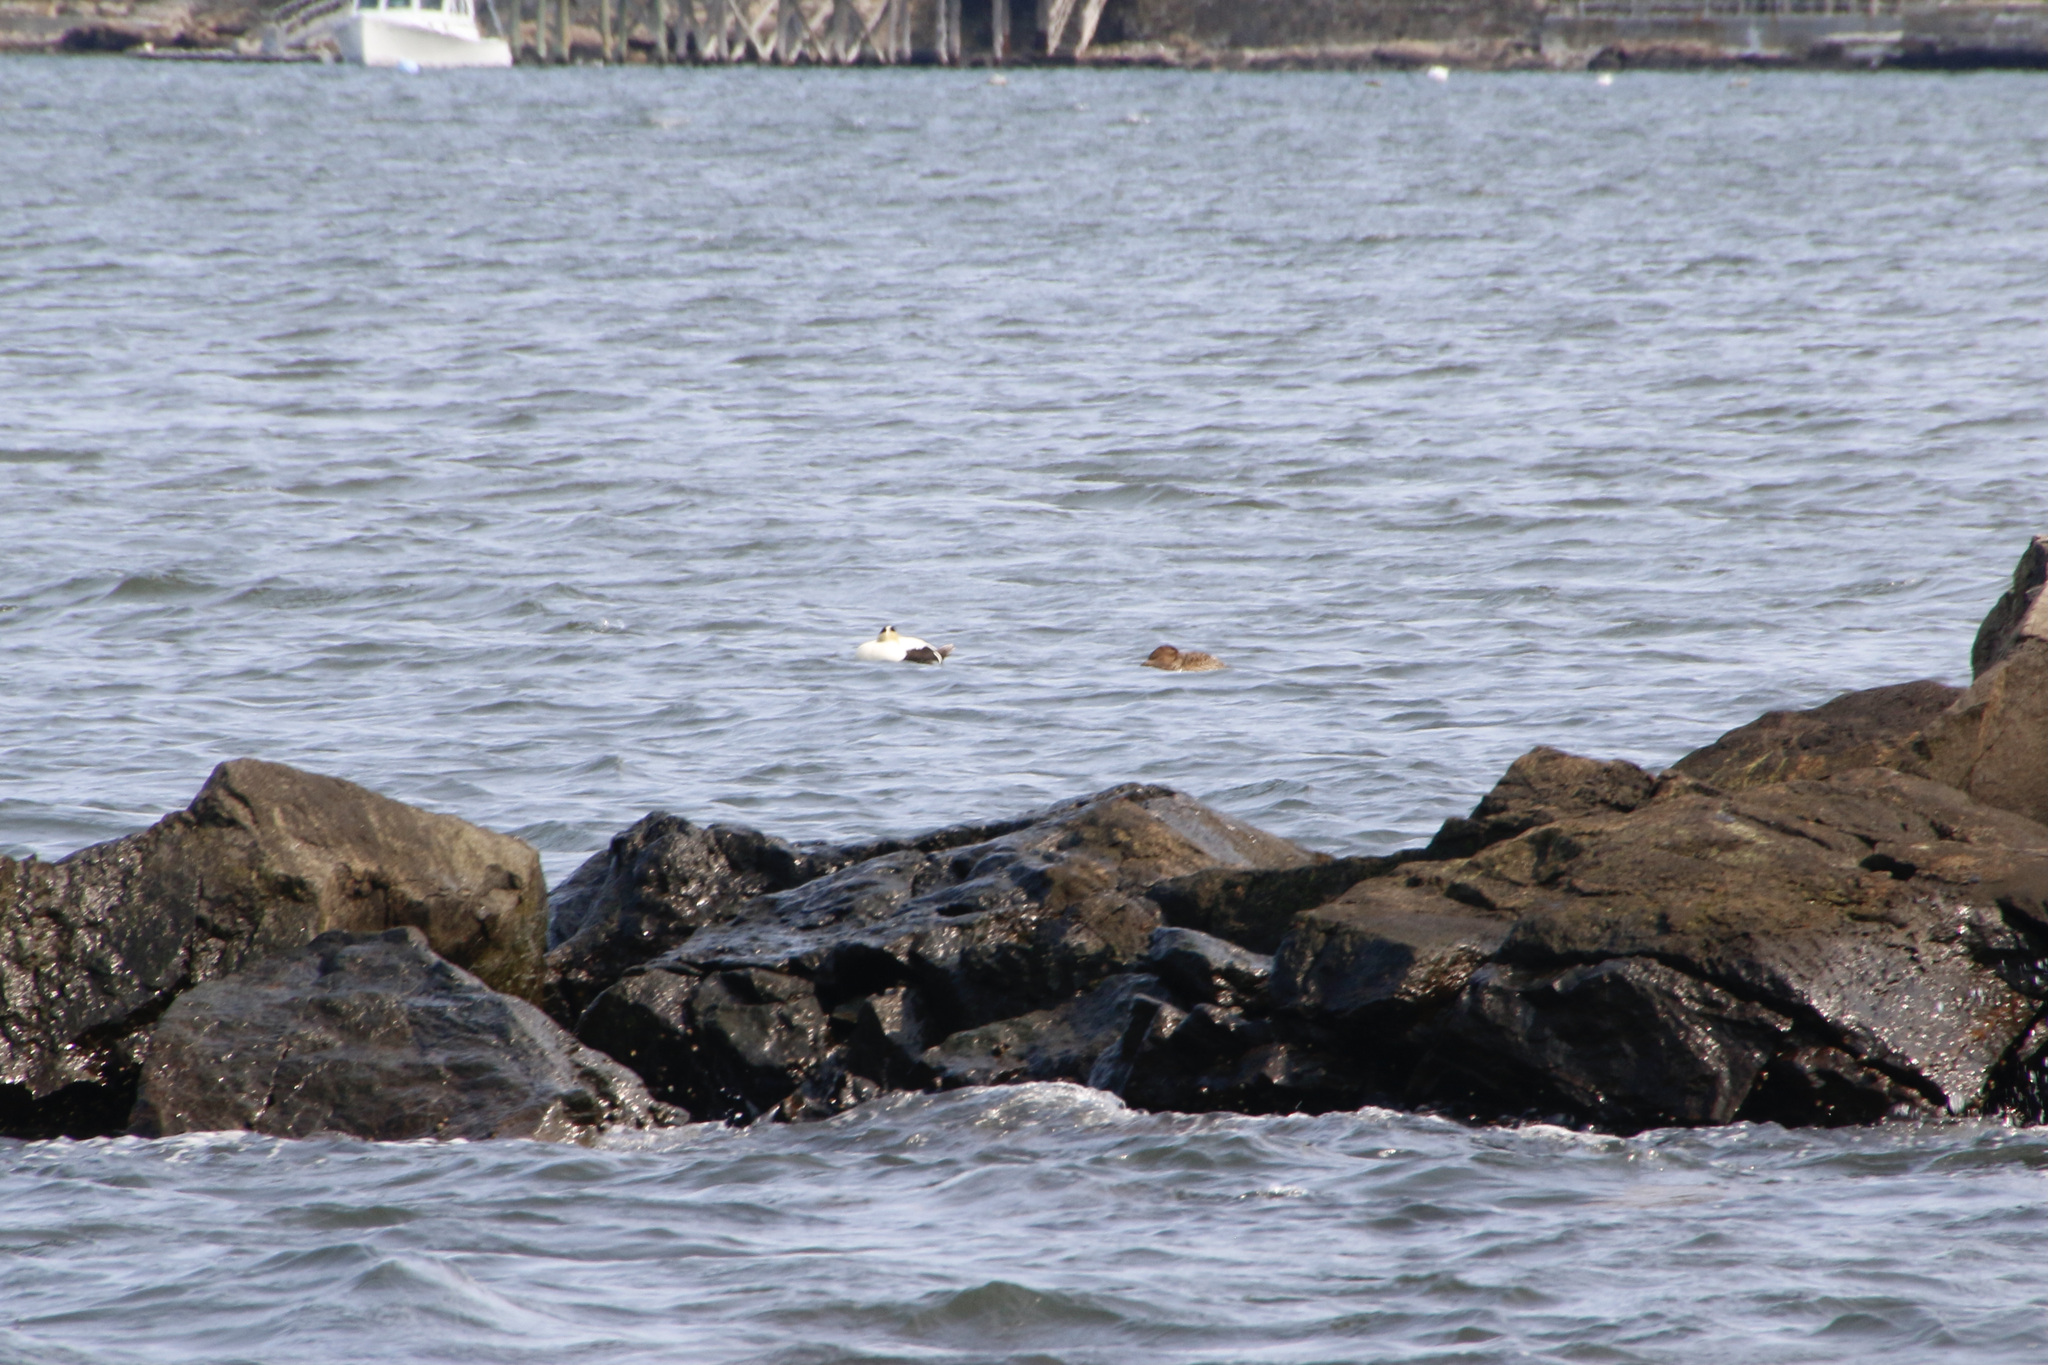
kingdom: Animalia
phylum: Chordata
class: Aves
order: Anseriformes
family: Anatidae
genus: Somateria
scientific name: Somateria mollissima
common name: Common eider
